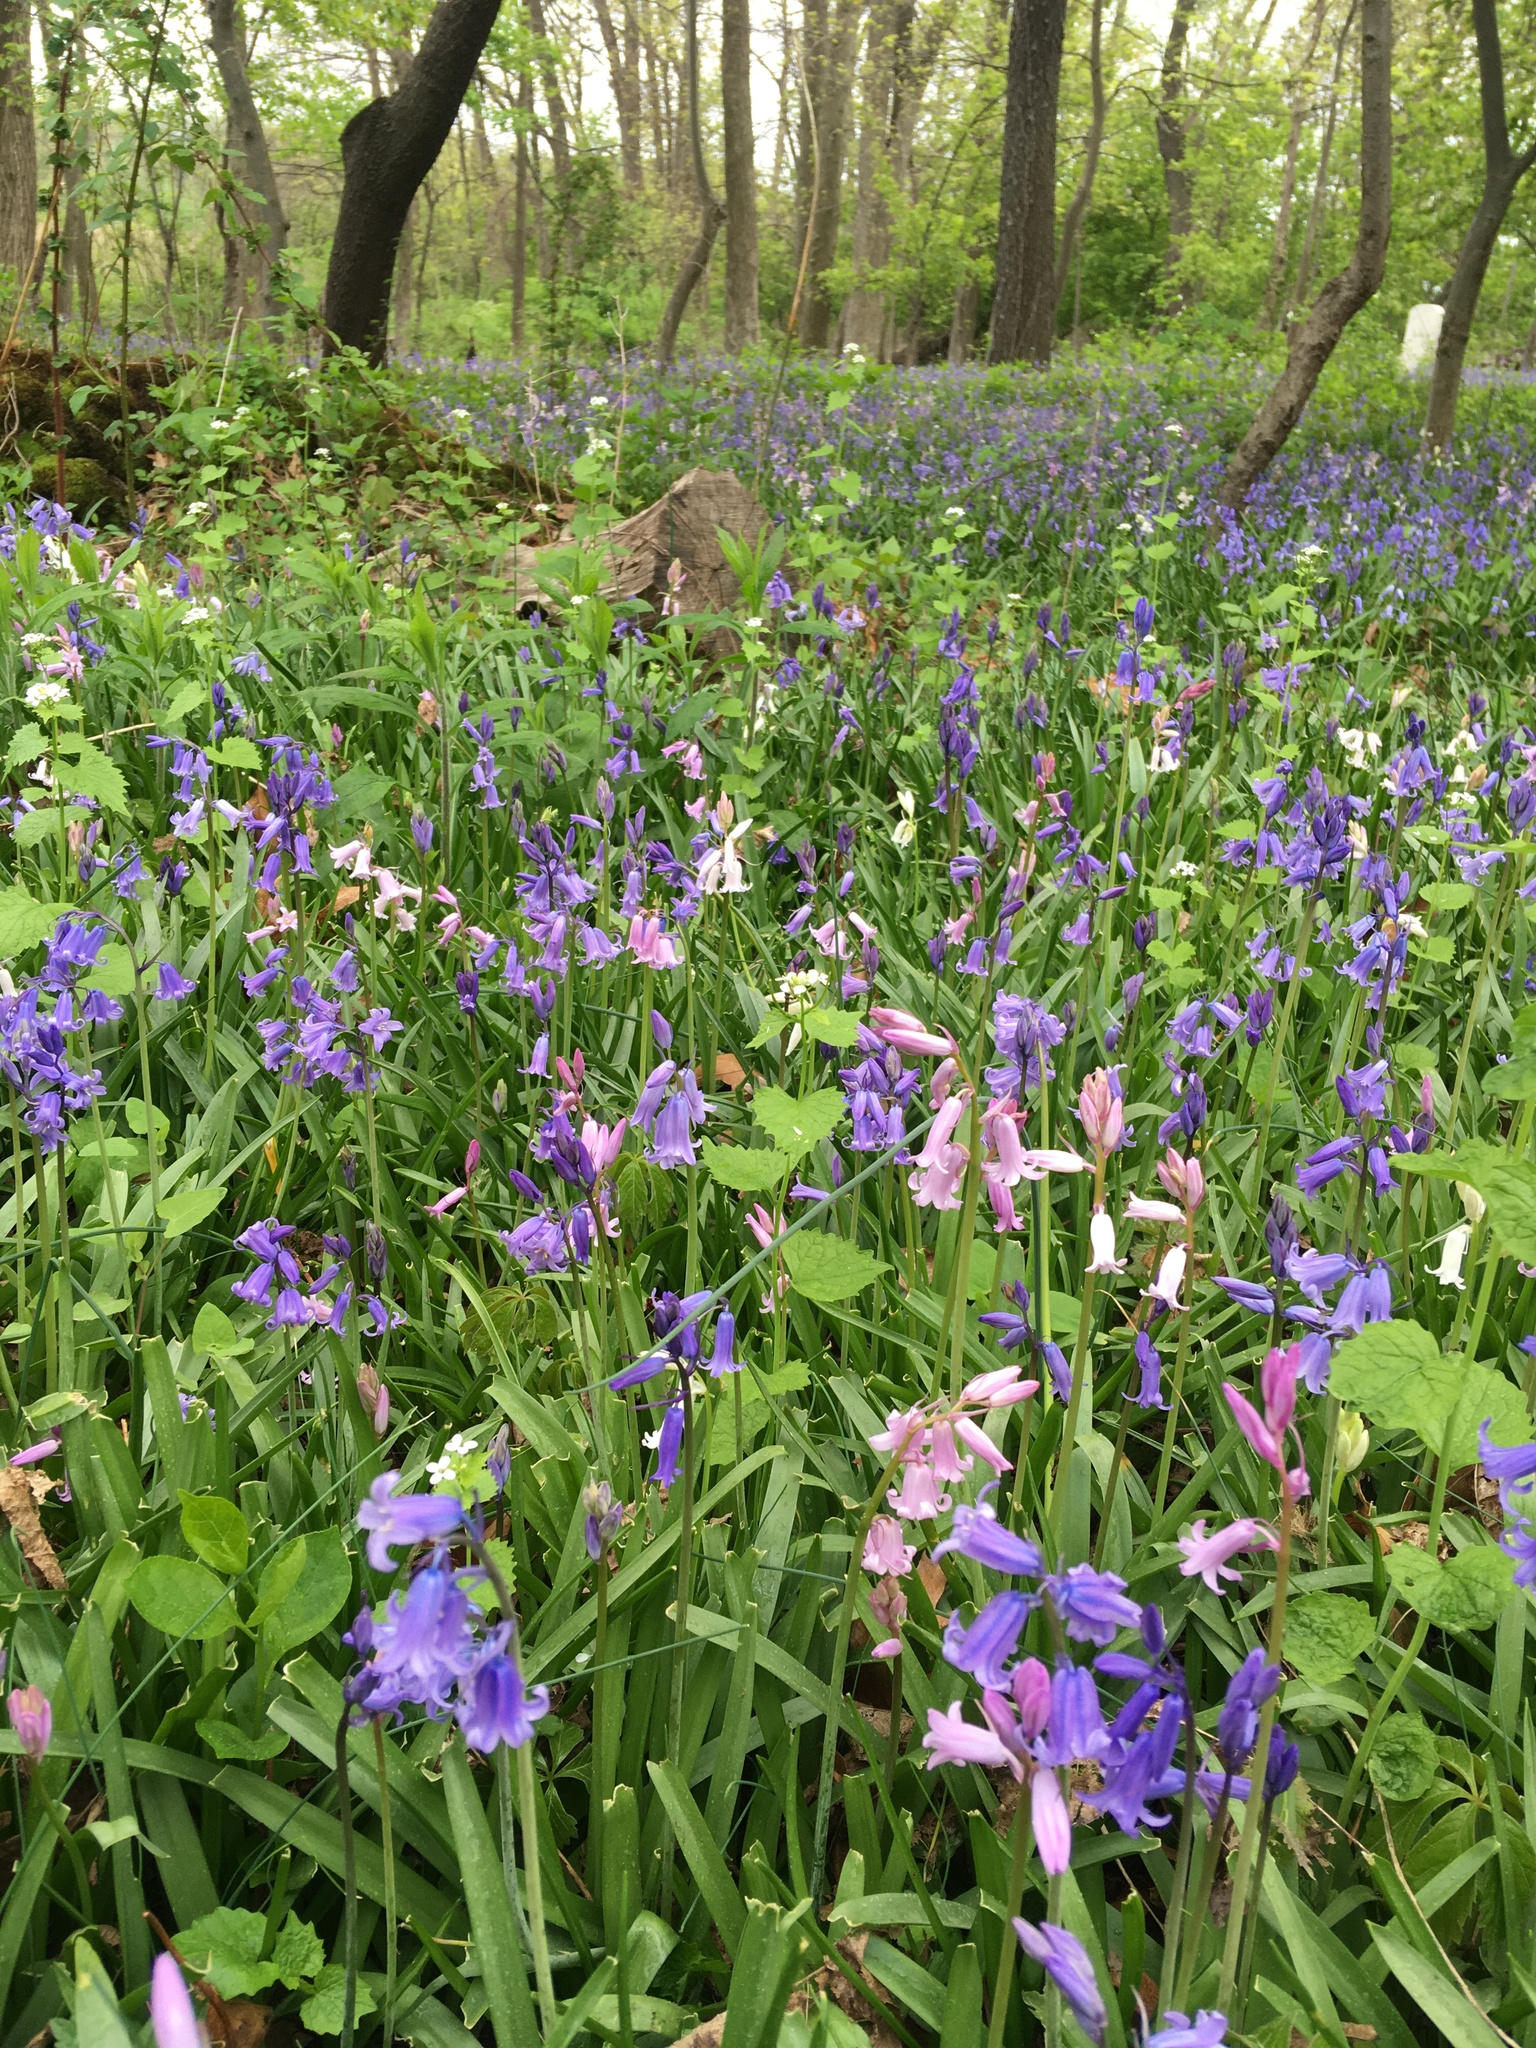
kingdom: Plantae
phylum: Tracheophyta
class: Liliopsida
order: Asparagales
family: Asparagaceae
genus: Hyacinthoides
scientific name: Hyacinthoides massartiana
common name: Hyacinthoides
